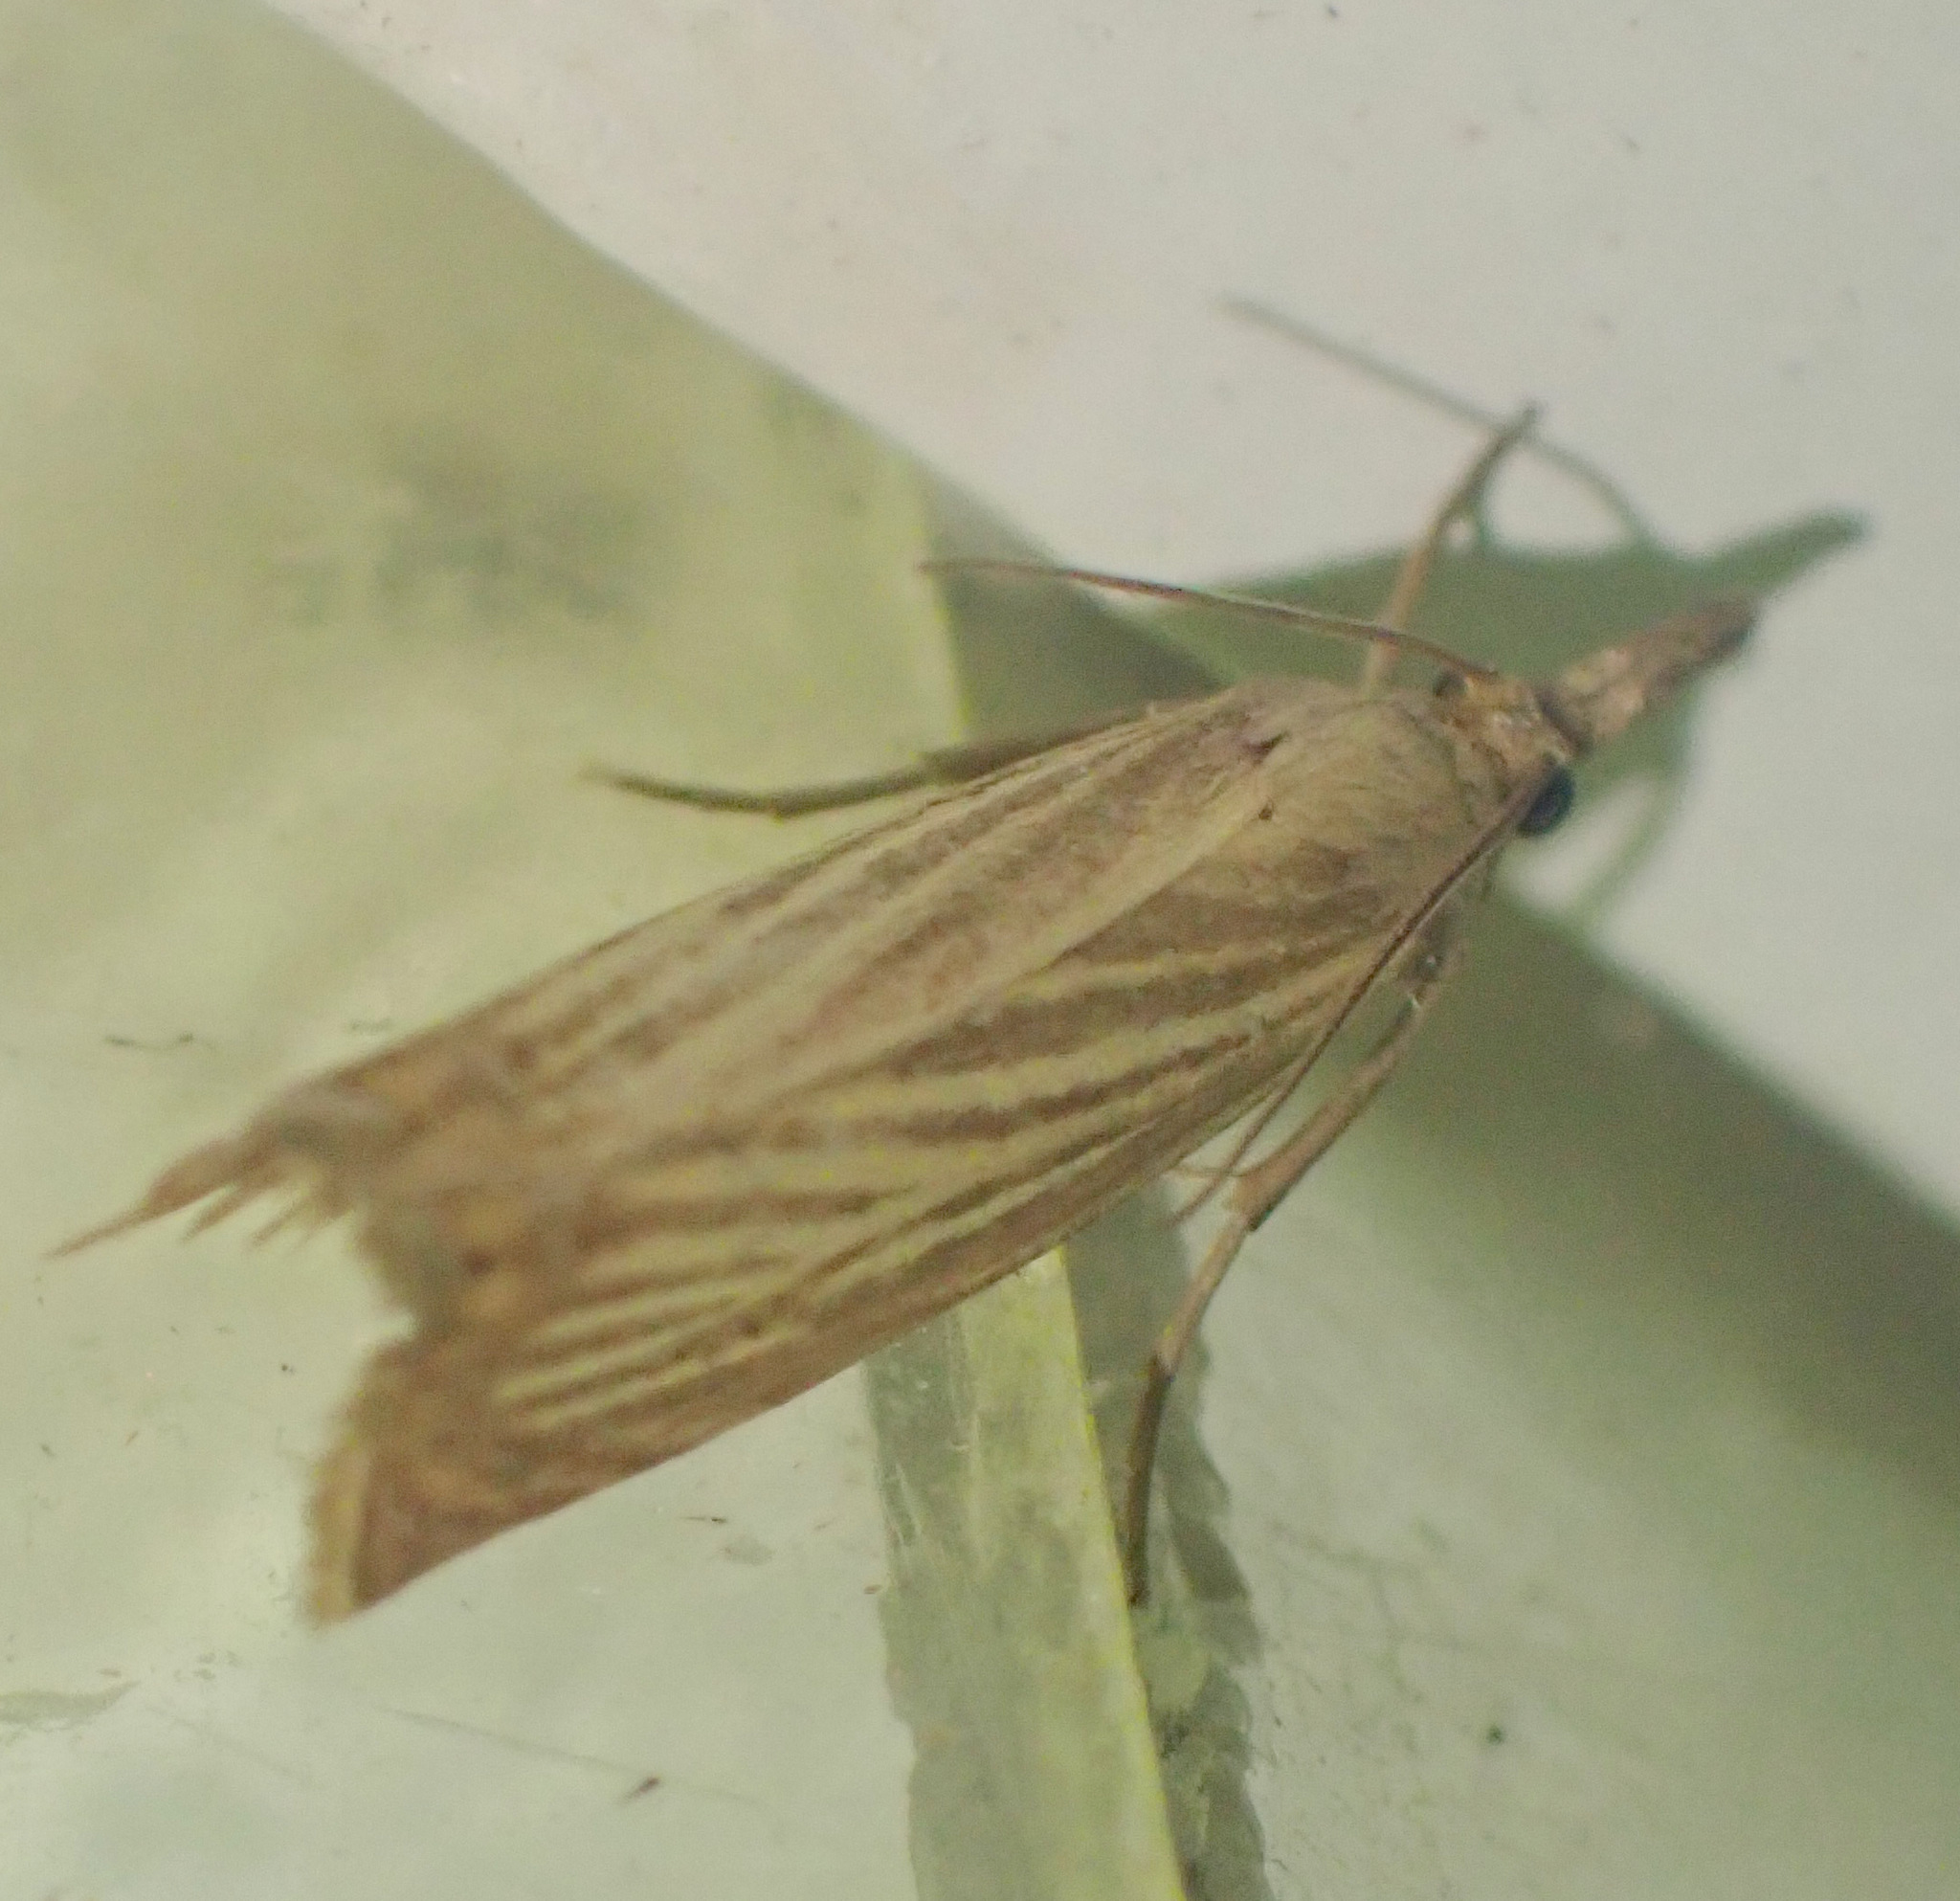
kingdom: Animalia
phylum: Arthropoda
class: Insecta
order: Lepidoptera
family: Crambidae
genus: Chrysoteuchia
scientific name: Chrysoteuchia culmella
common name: Garden grass-veneer
